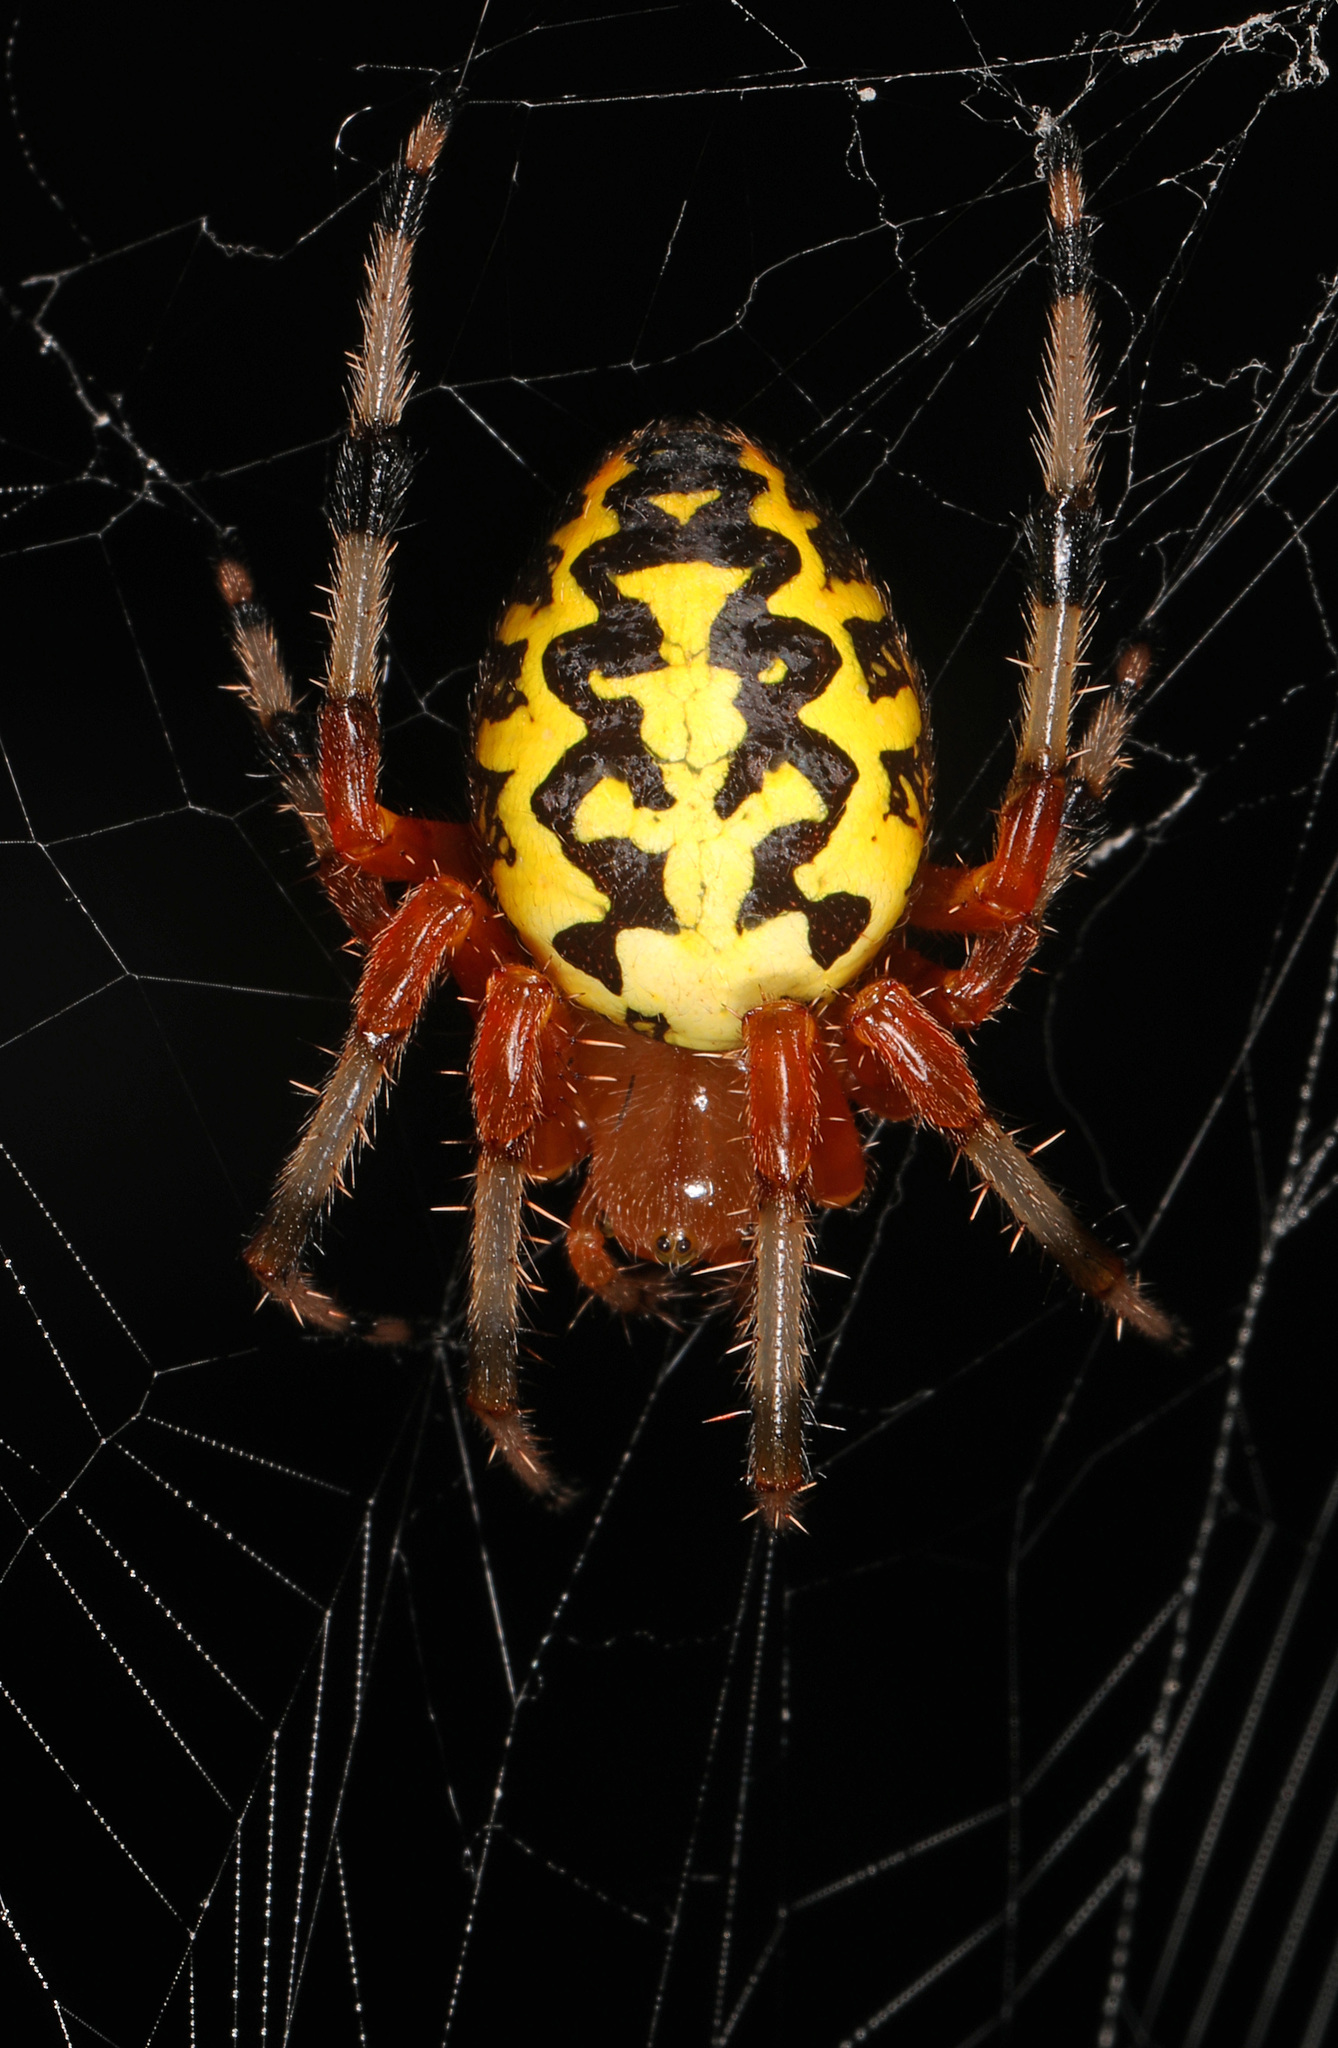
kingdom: Animalia
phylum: Arthropoda
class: Arachnida
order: Araneae
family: Araneidae
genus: Araneus
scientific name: Araneus marmoreus
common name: Marbled orbweaver
